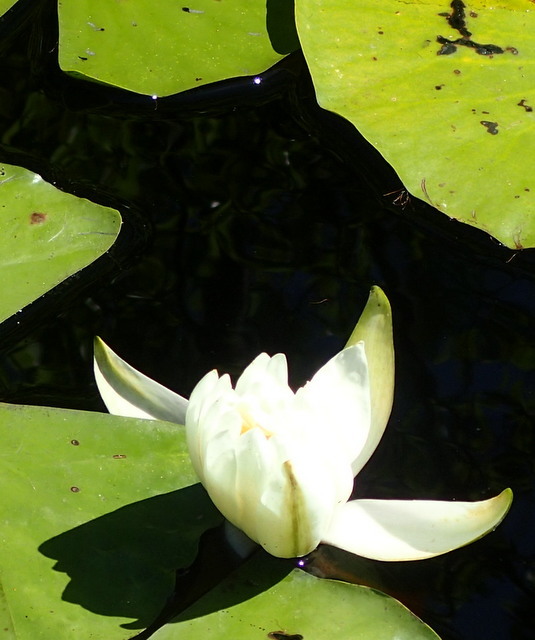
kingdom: Plantae
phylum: Tracheophyta
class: Magnoliopsida
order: Nymphaeales
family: Nymphaeaceae
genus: Nymphaea
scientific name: Nymphaea odorata
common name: Fragrant water-lily
